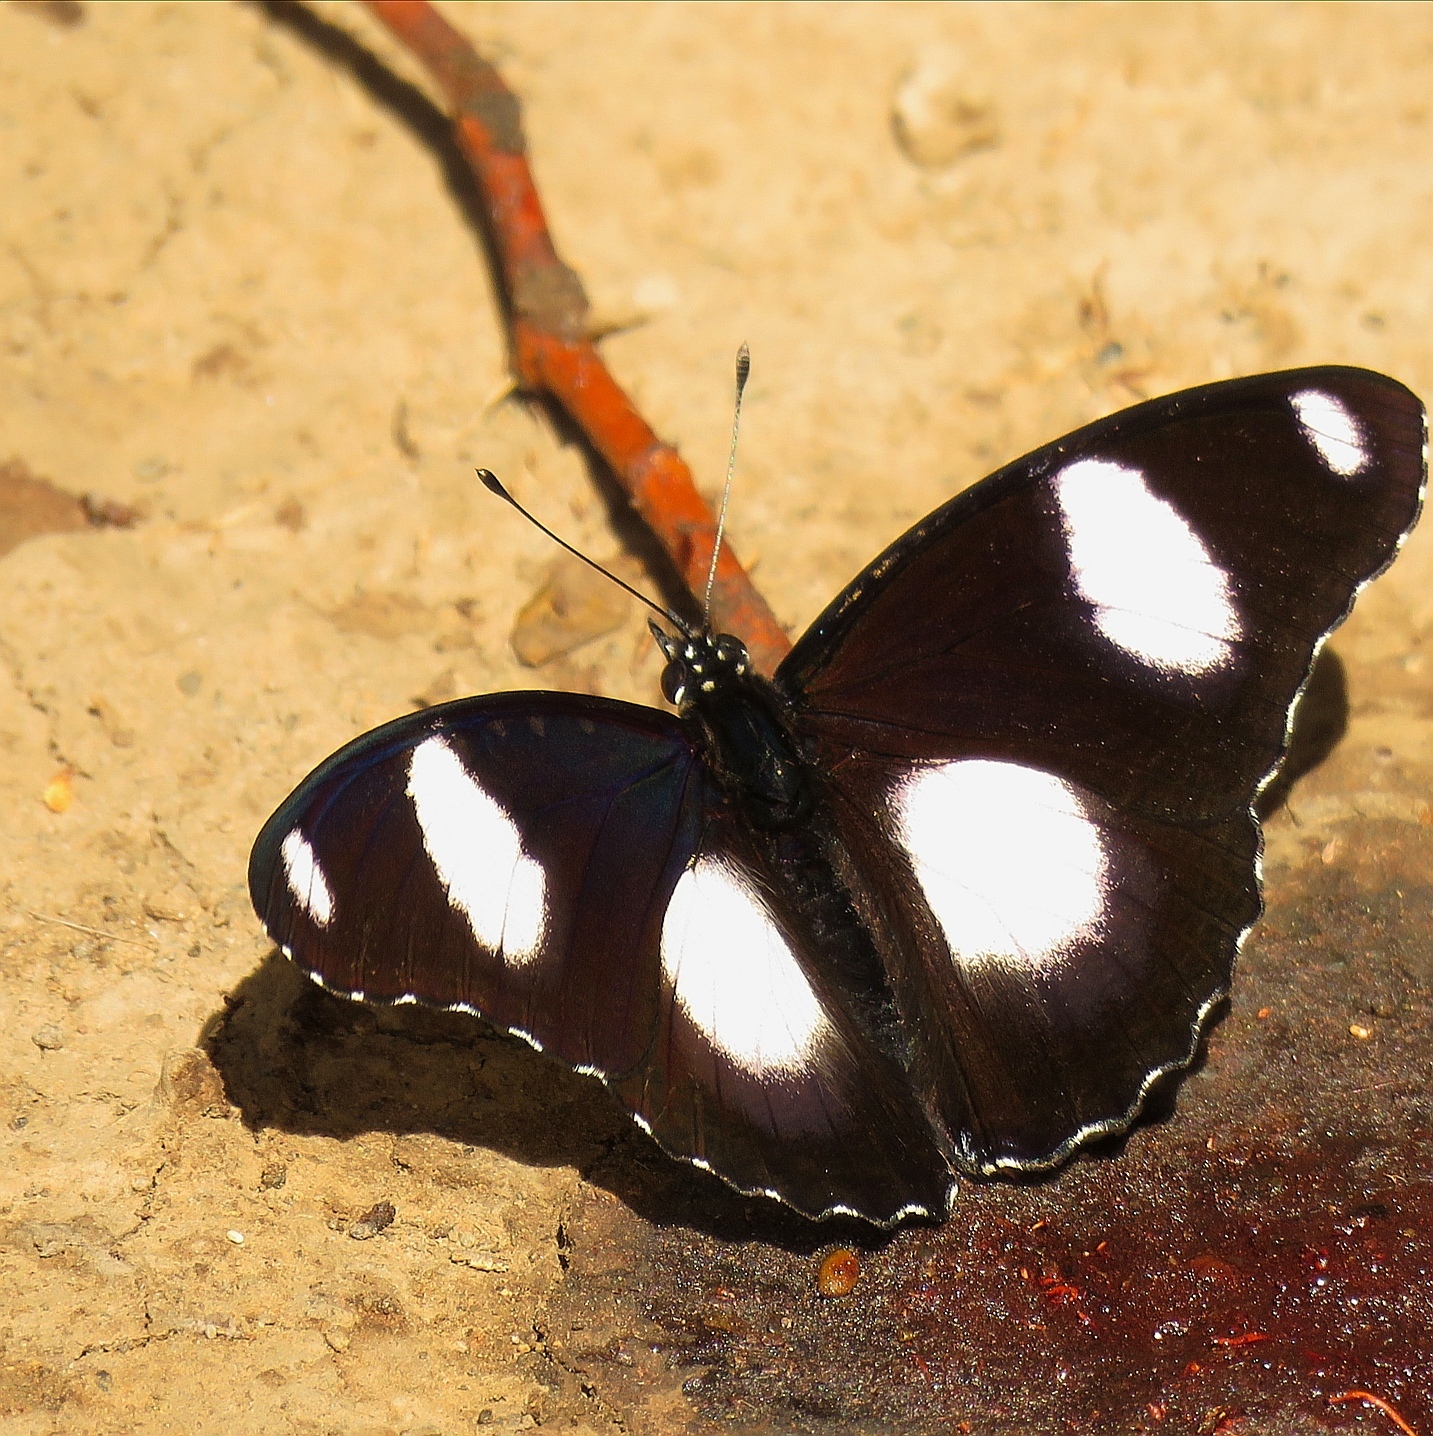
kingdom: Animalia
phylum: Arthropoda
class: Insecta
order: Lepidoptera
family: Nymphalidae
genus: Hypolimnas
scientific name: Hypolimnas misippus
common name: False plain tiger
